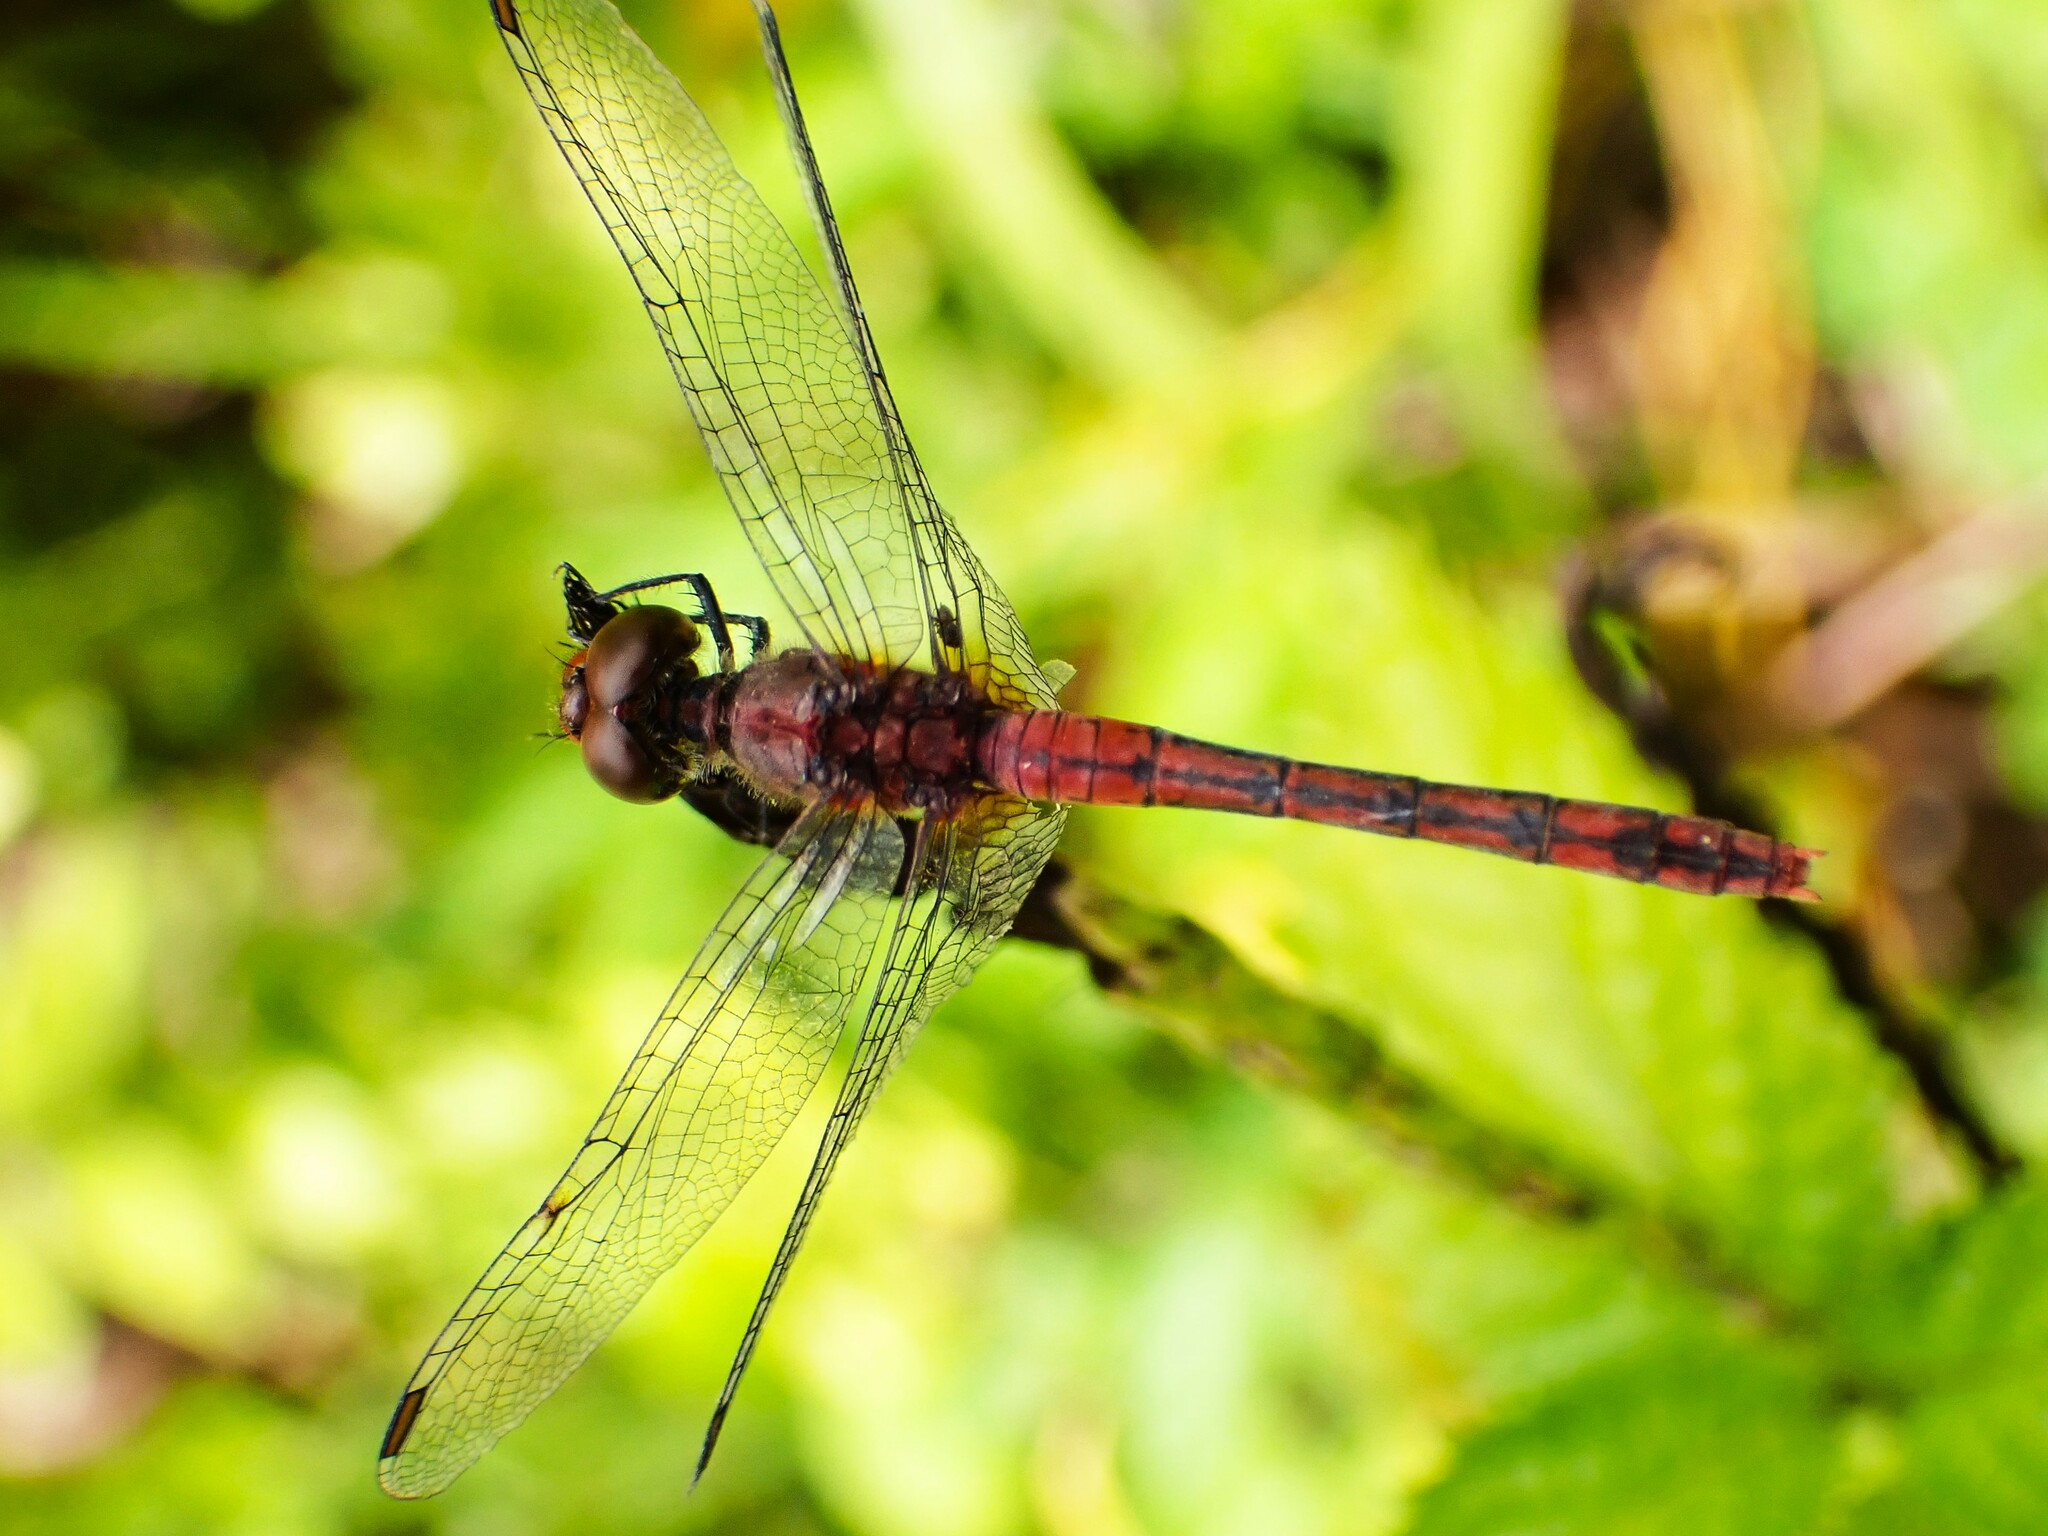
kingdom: Animalia
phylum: Arthropoda
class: Insecta
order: Odonata
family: Libellulidae
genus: Diplacodes
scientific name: Diplacodes bipunctata
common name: Red percher dragonfly
